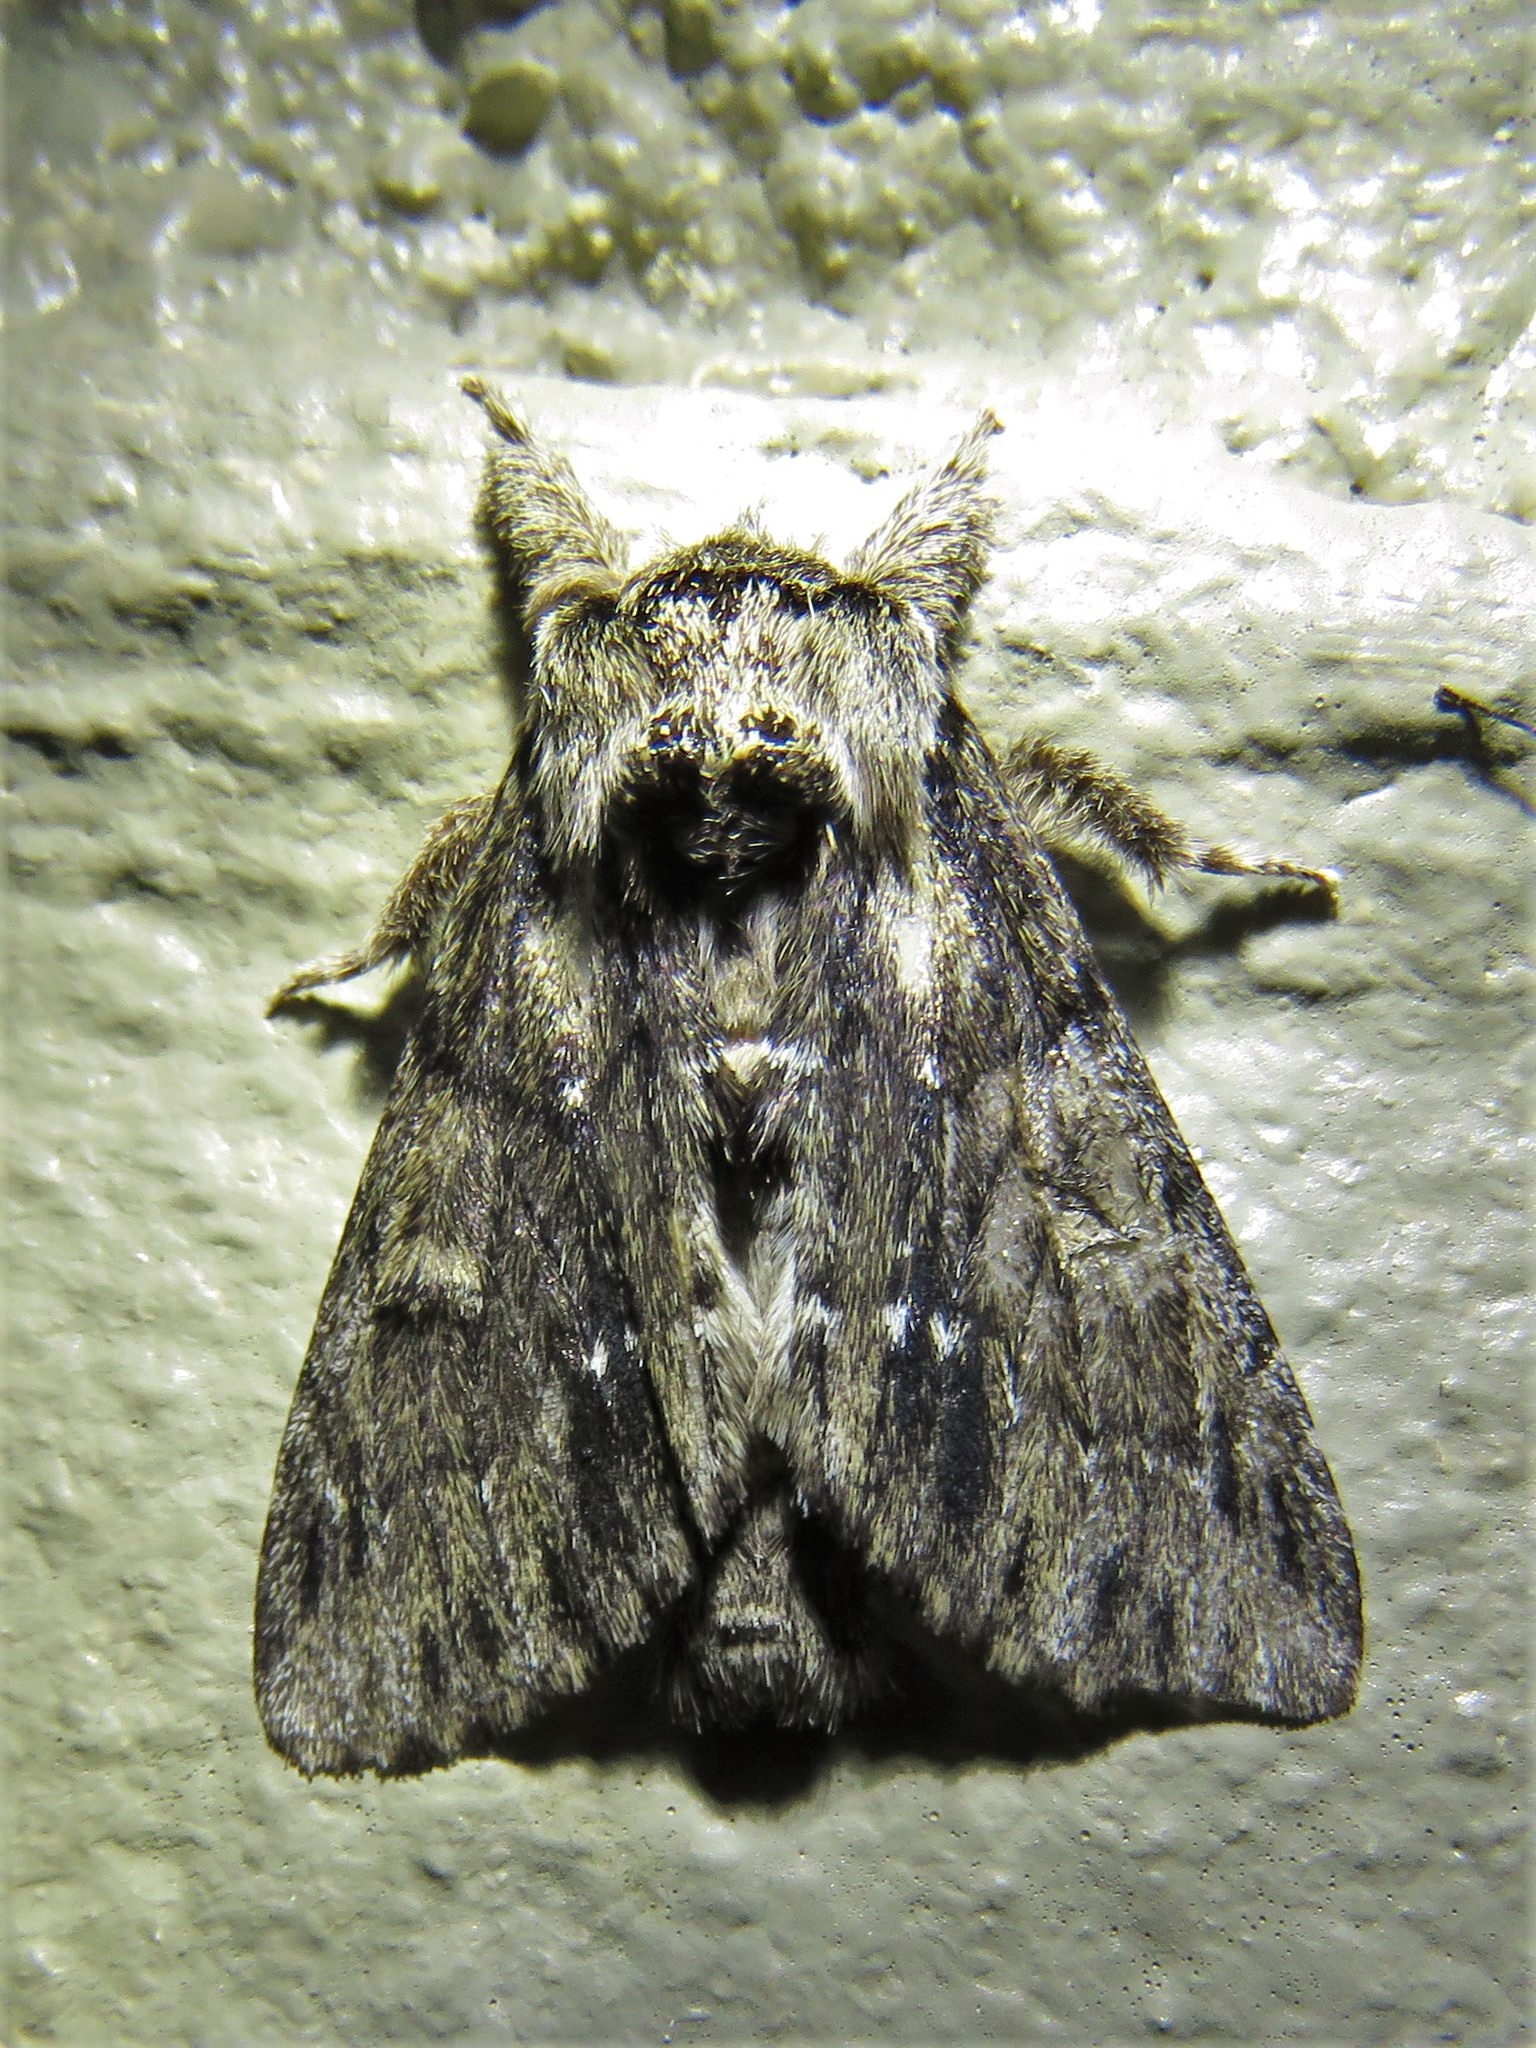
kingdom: Animalia
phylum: Arthropoda
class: Insecta
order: Lepidoptera
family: Notodontidae
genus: Paraeschra
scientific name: Paraeschra georgica
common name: Georgian prominent
